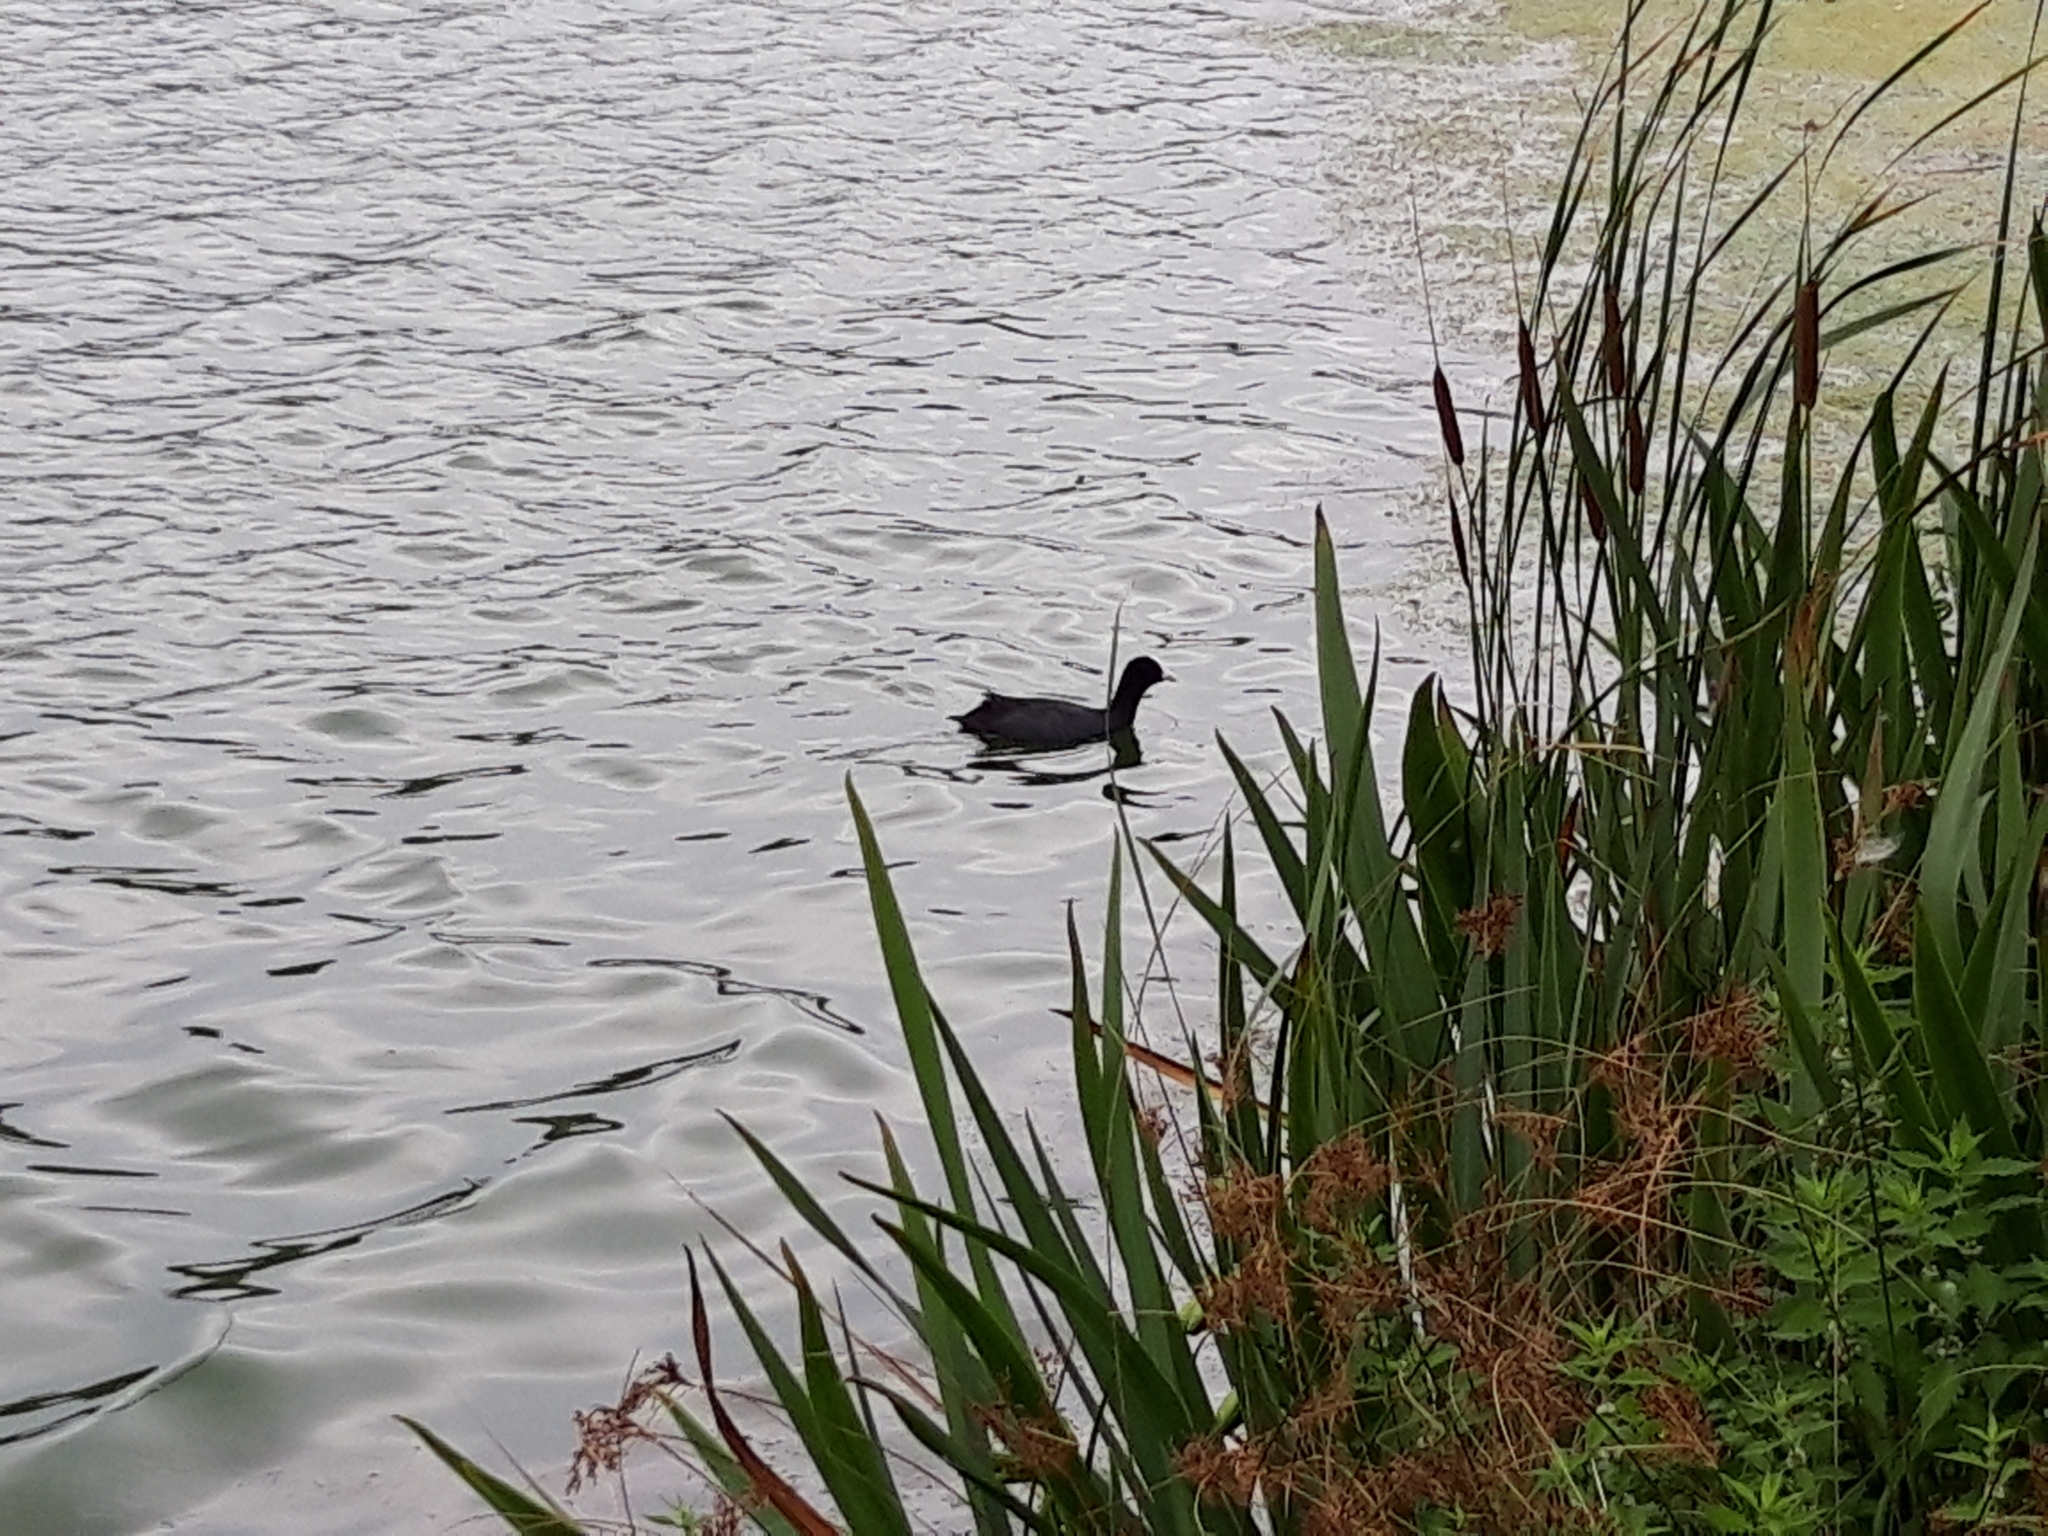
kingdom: Animalia
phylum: Chordata
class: Aves
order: Gruiformes
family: Rallidae
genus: Fulica
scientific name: Fulica atra
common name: Eurasian coot
